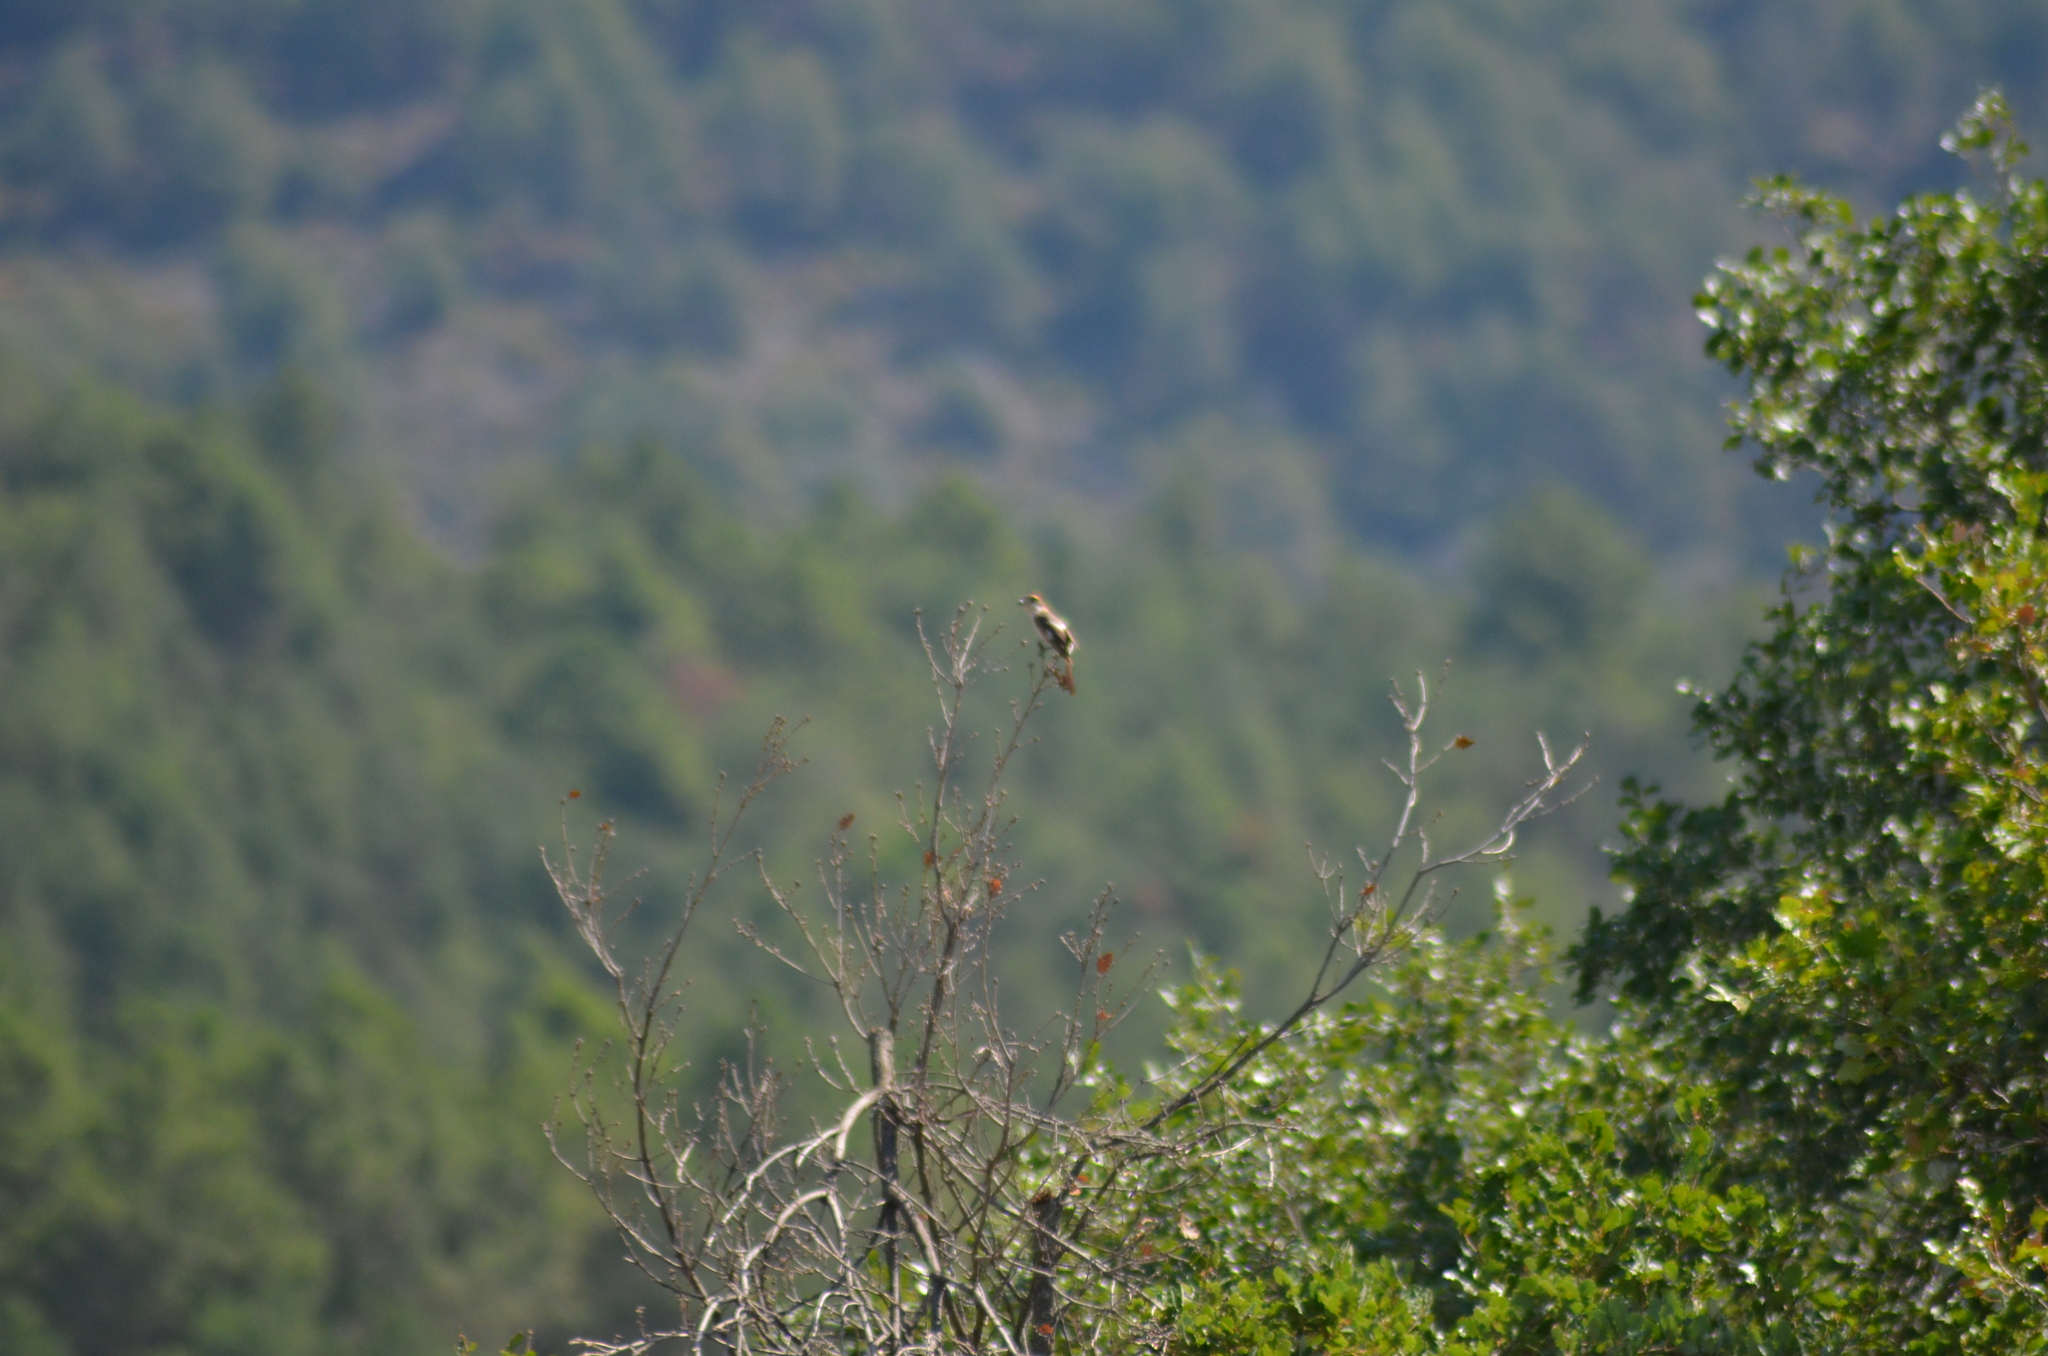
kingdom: Animalia
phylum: Chordata
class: Aves
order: Passeriformes
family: Laniidae
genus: Lanius
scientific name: Lanius senator
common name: Woodchat shrike
